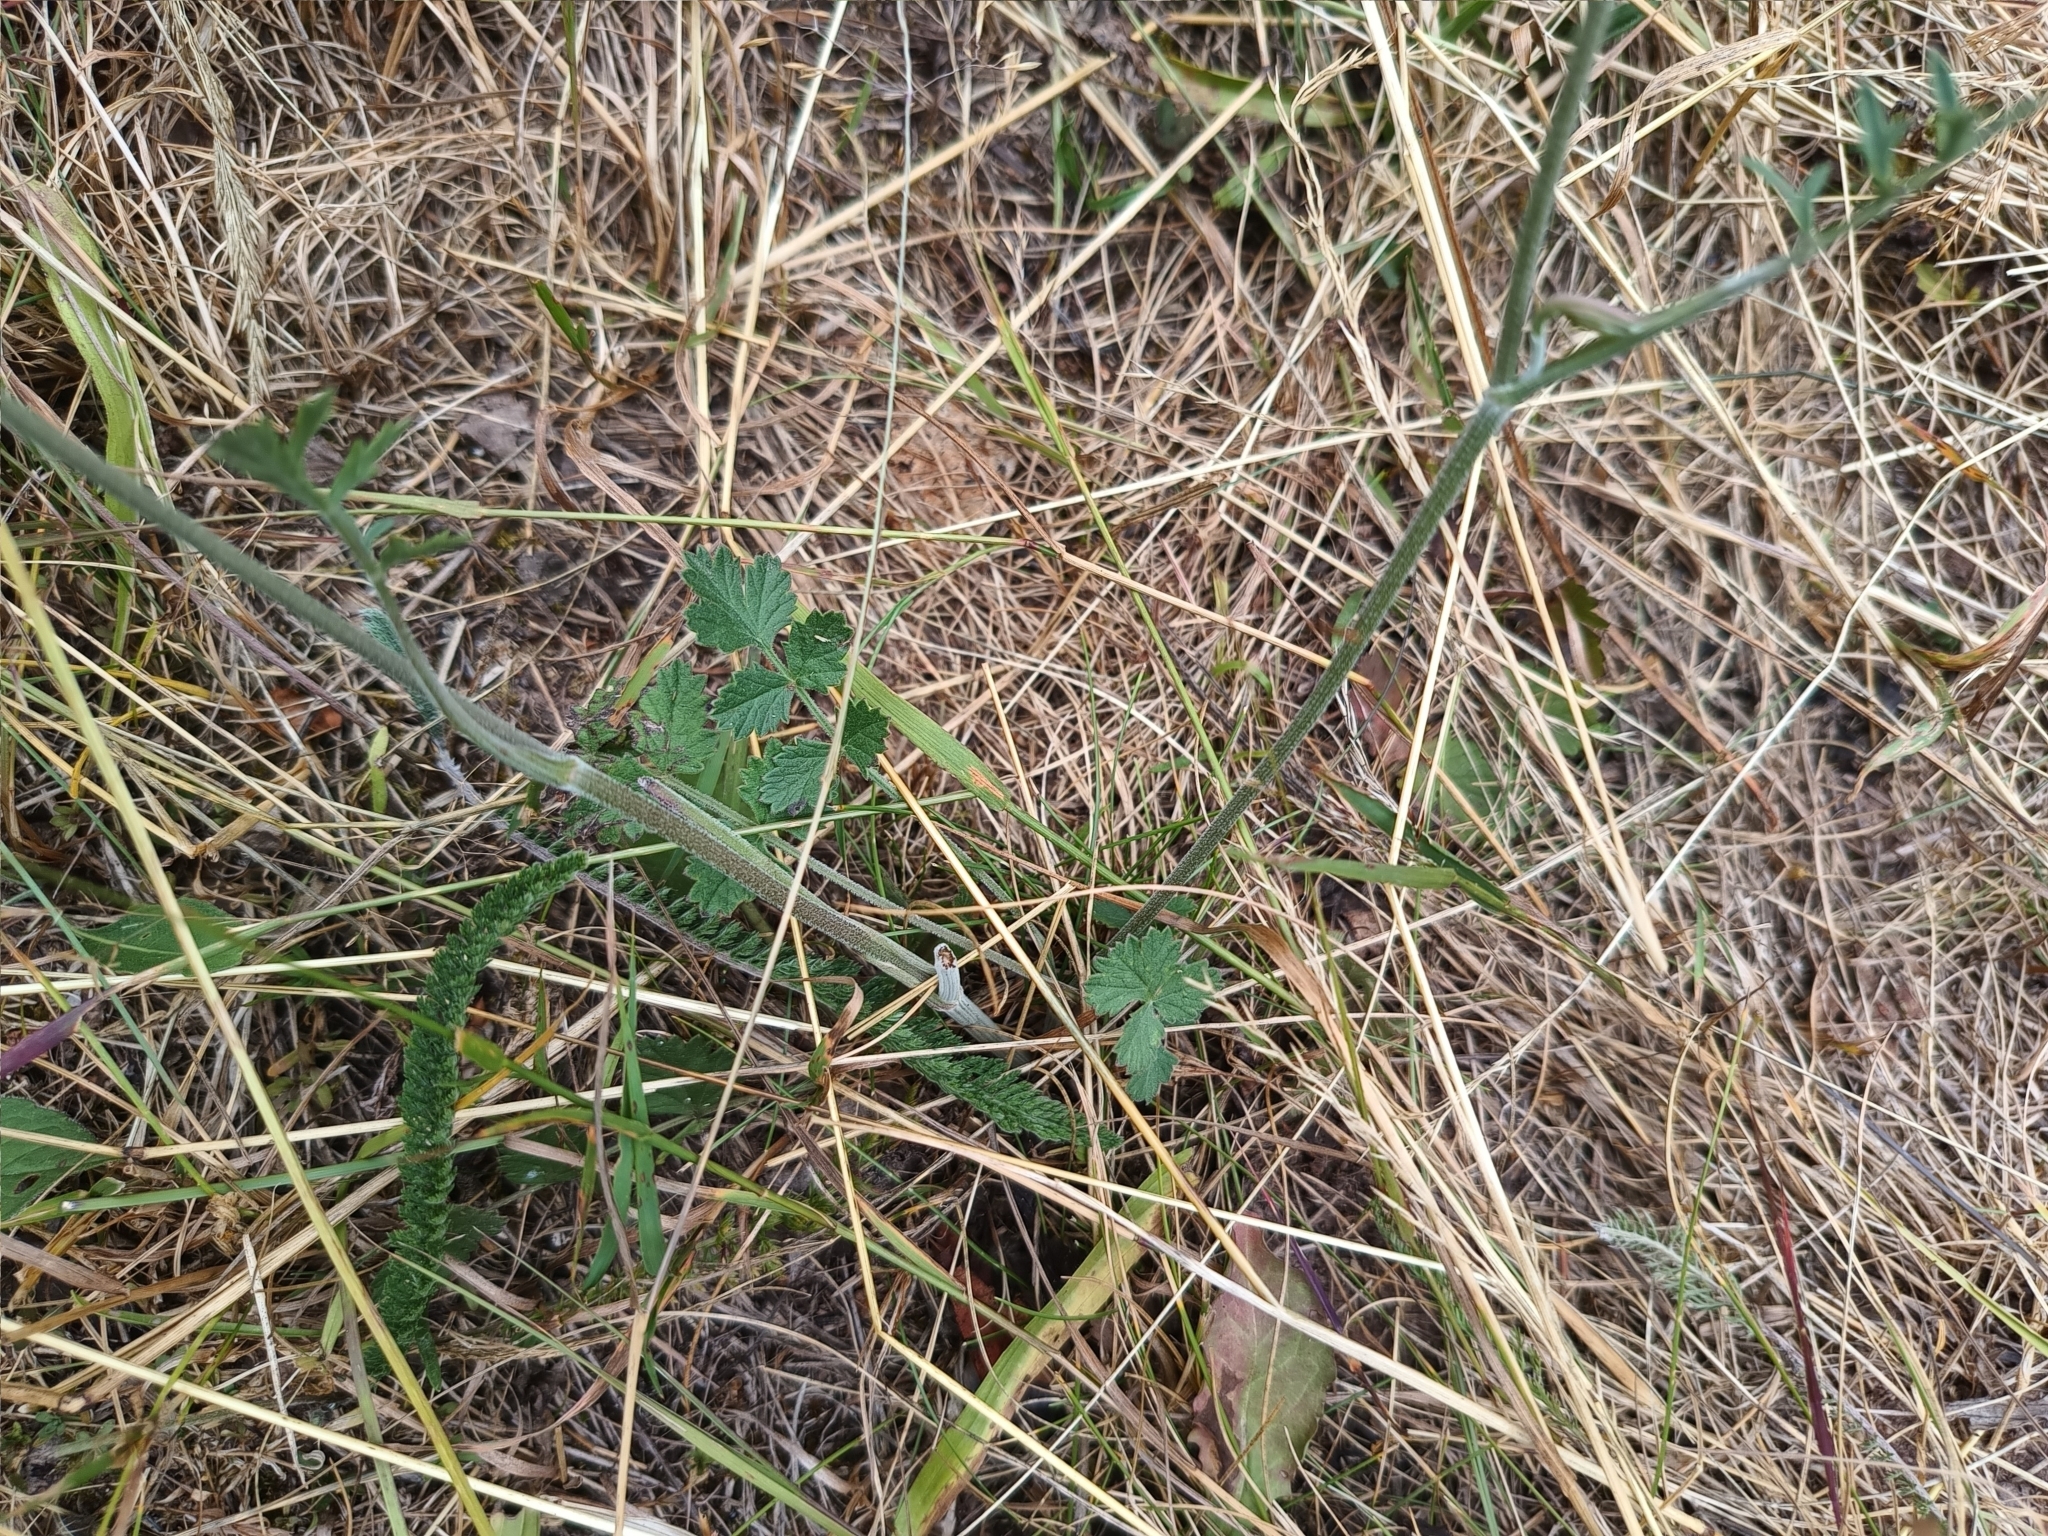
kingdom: Plantae
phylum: Tracheophyta
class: Magnoliopsida
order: Apiales
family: Apiaceae
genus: Pimpinella
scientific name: Pimpinella saxifraga
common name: Burnet-saxifrage
